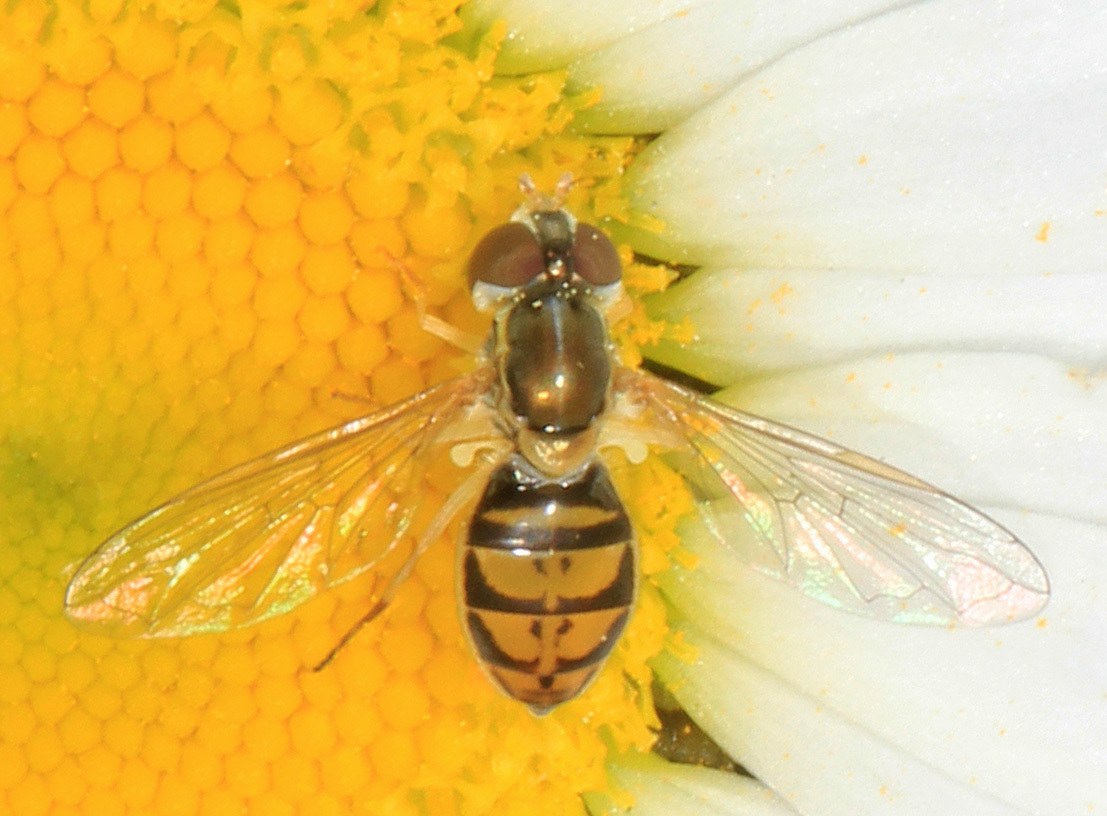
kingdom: Animalia
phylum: Arthropoda
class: Insecta
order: Diptera
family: Syrphidae
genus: Toxomerus
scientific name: Toxomerus marginatus
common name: Syrphid fly
